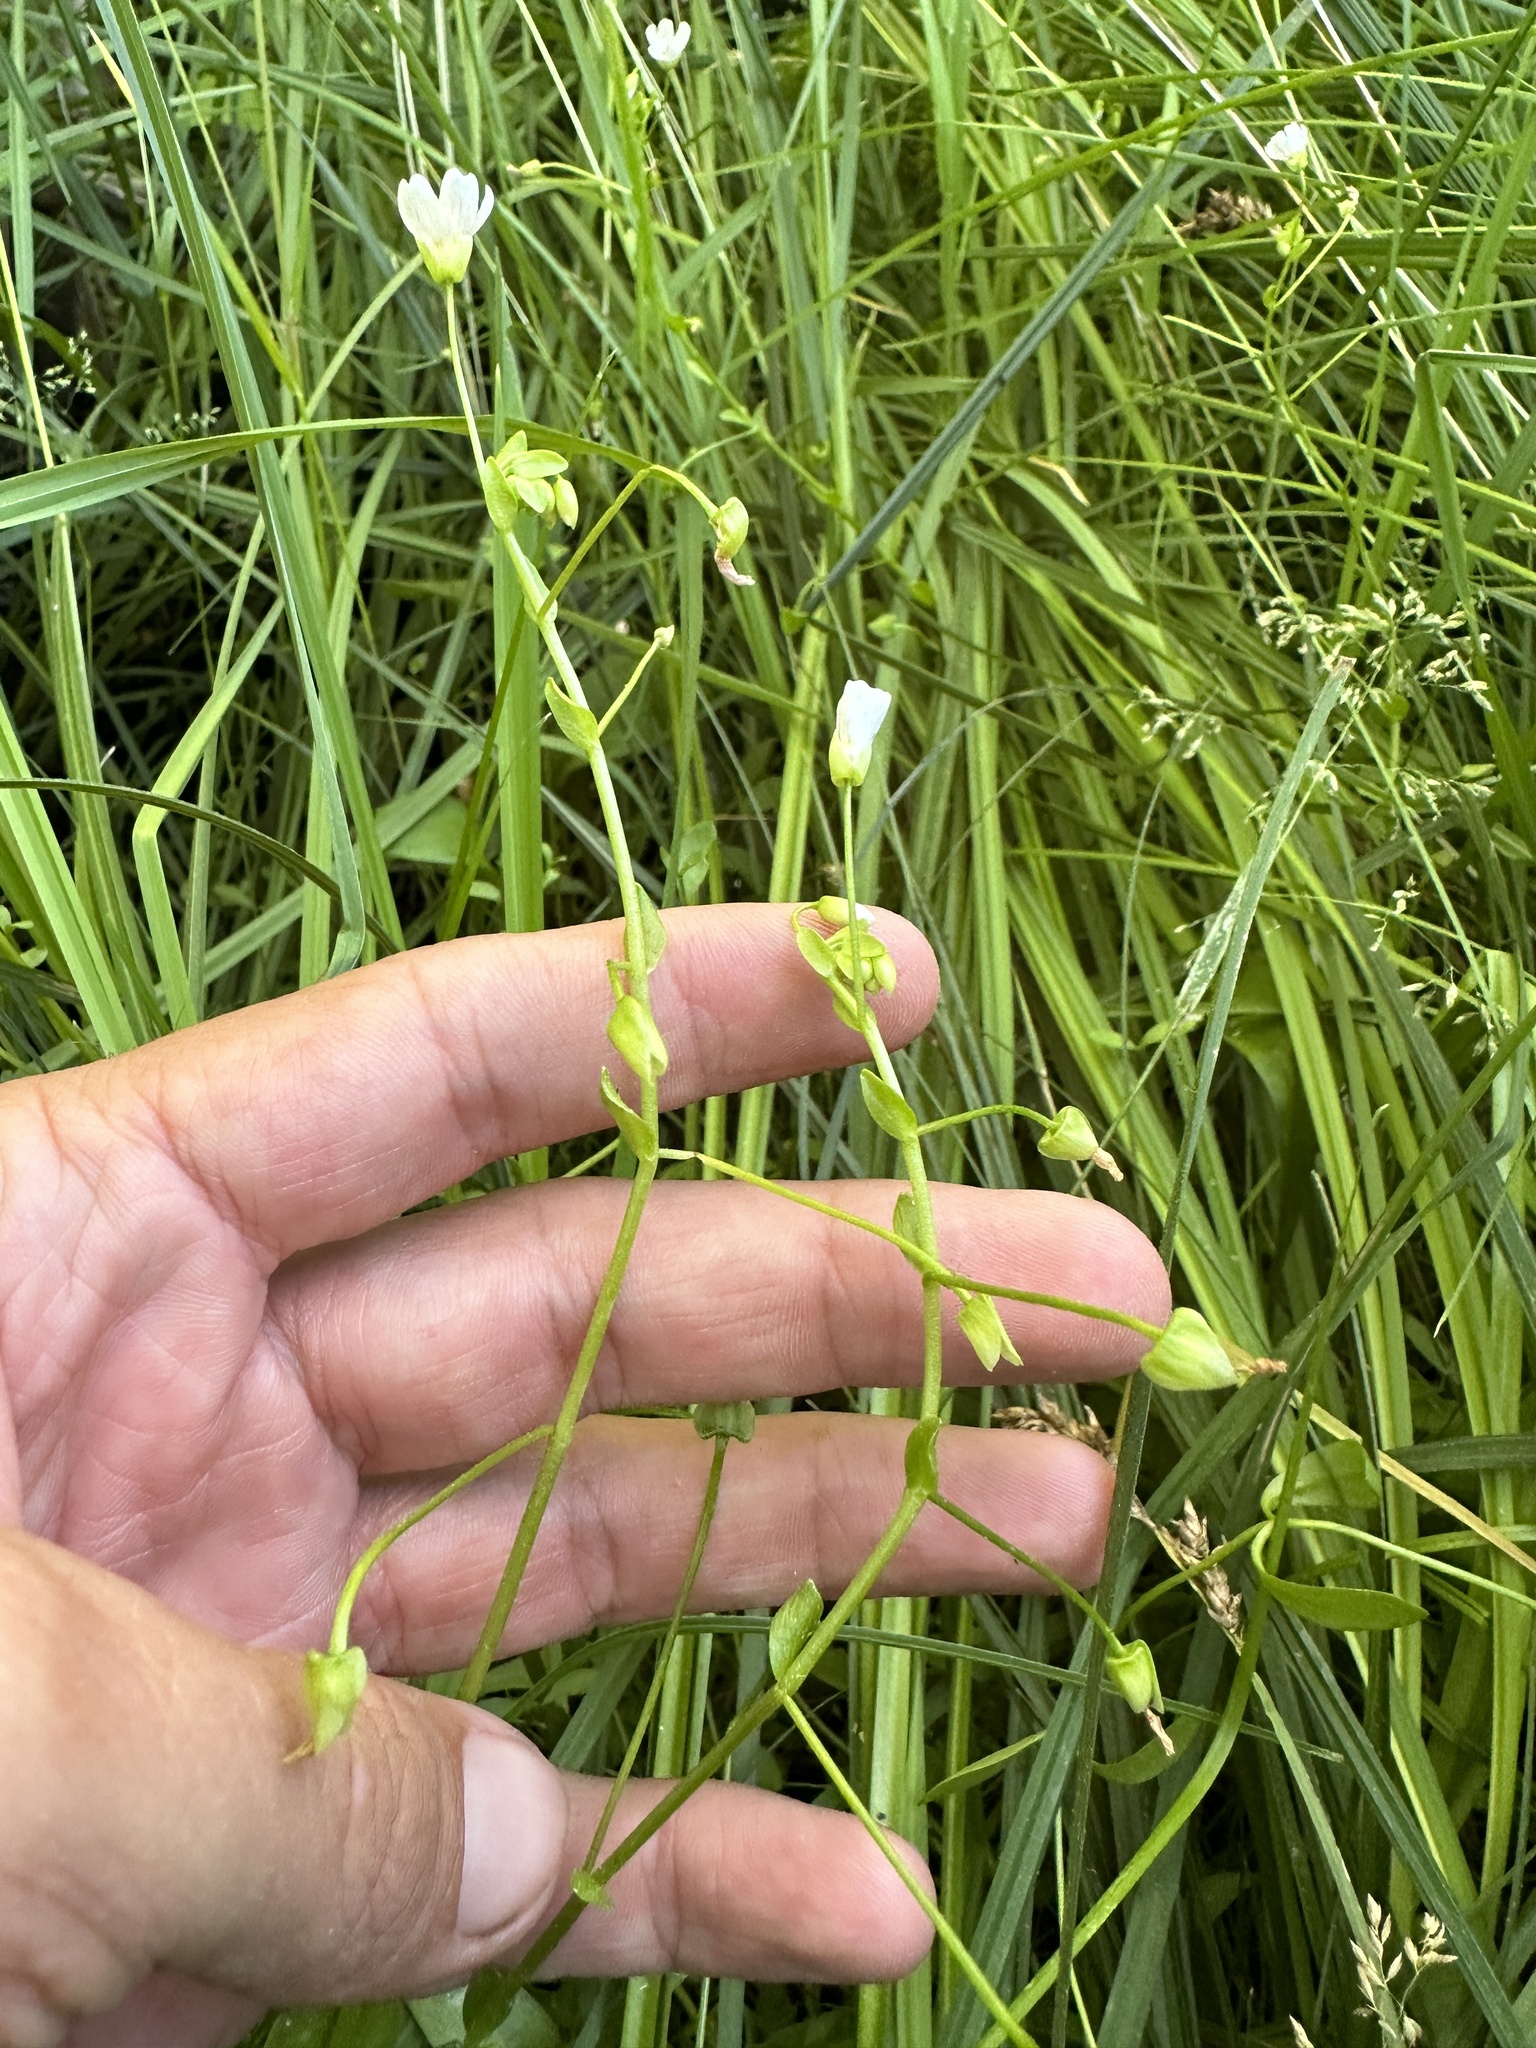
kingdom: Plantae
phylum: Tracheophyta
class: Magnoliopsida
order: Caryophyllales
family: Montiaceae
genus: Claytonia
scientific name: Claytonia palustris
